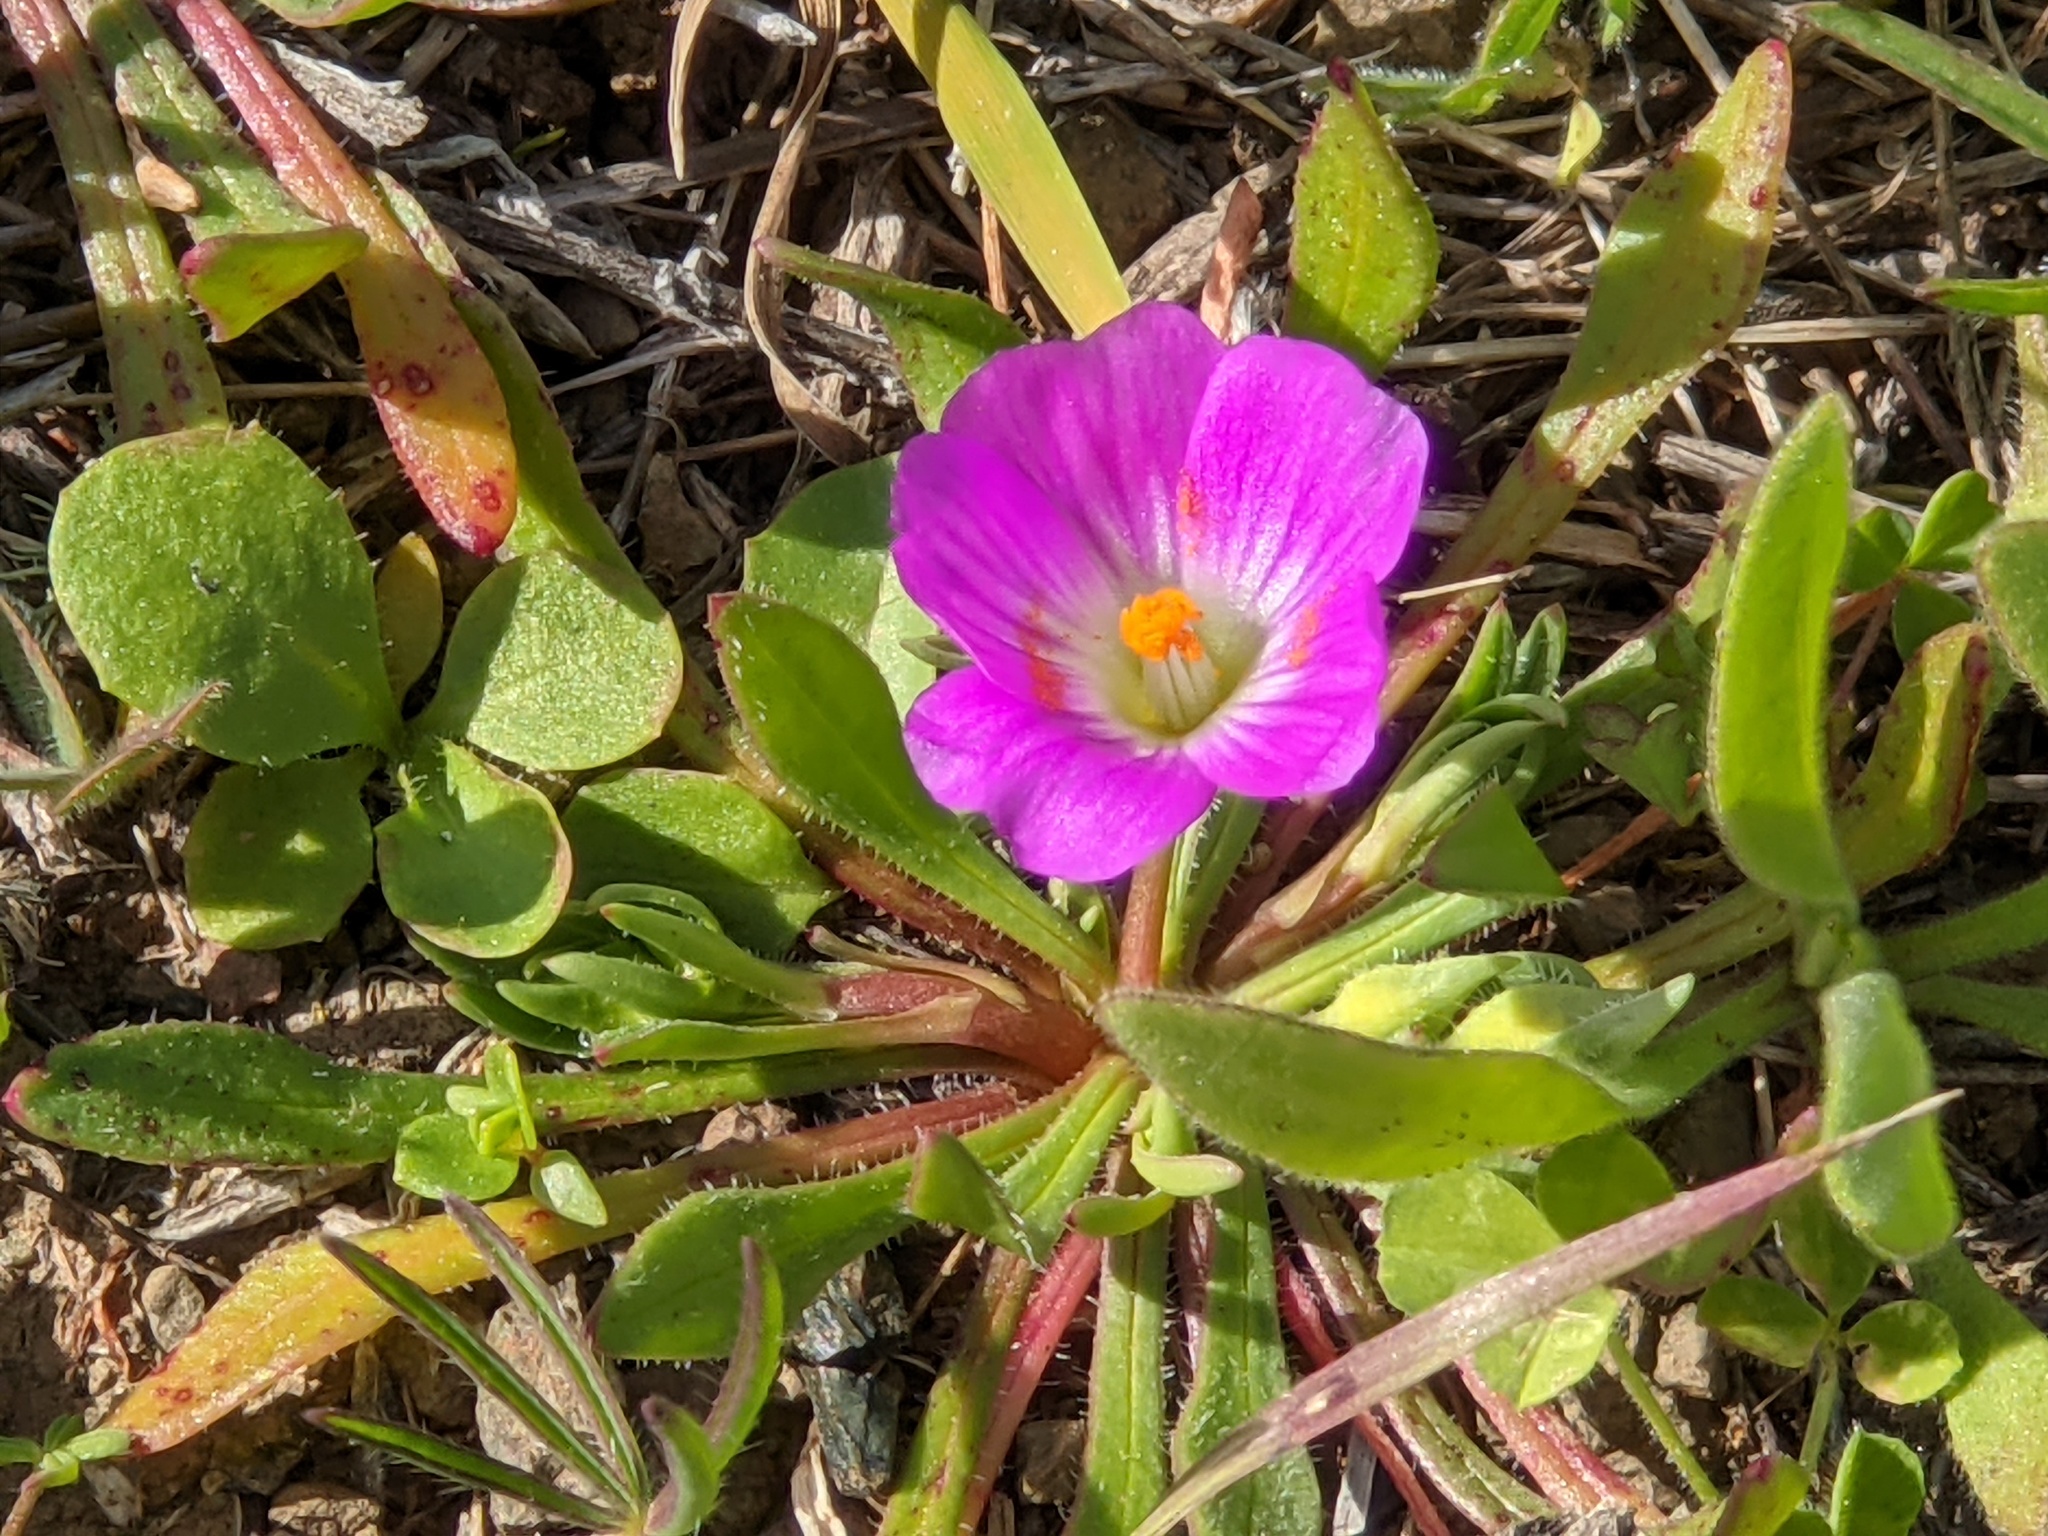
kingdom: Plantae
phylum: Tracheophyta
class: Magnoliopsida
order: Caryophyllales
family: Montiaceae
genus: Calandrinia
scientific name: Calandrinia menziesii
